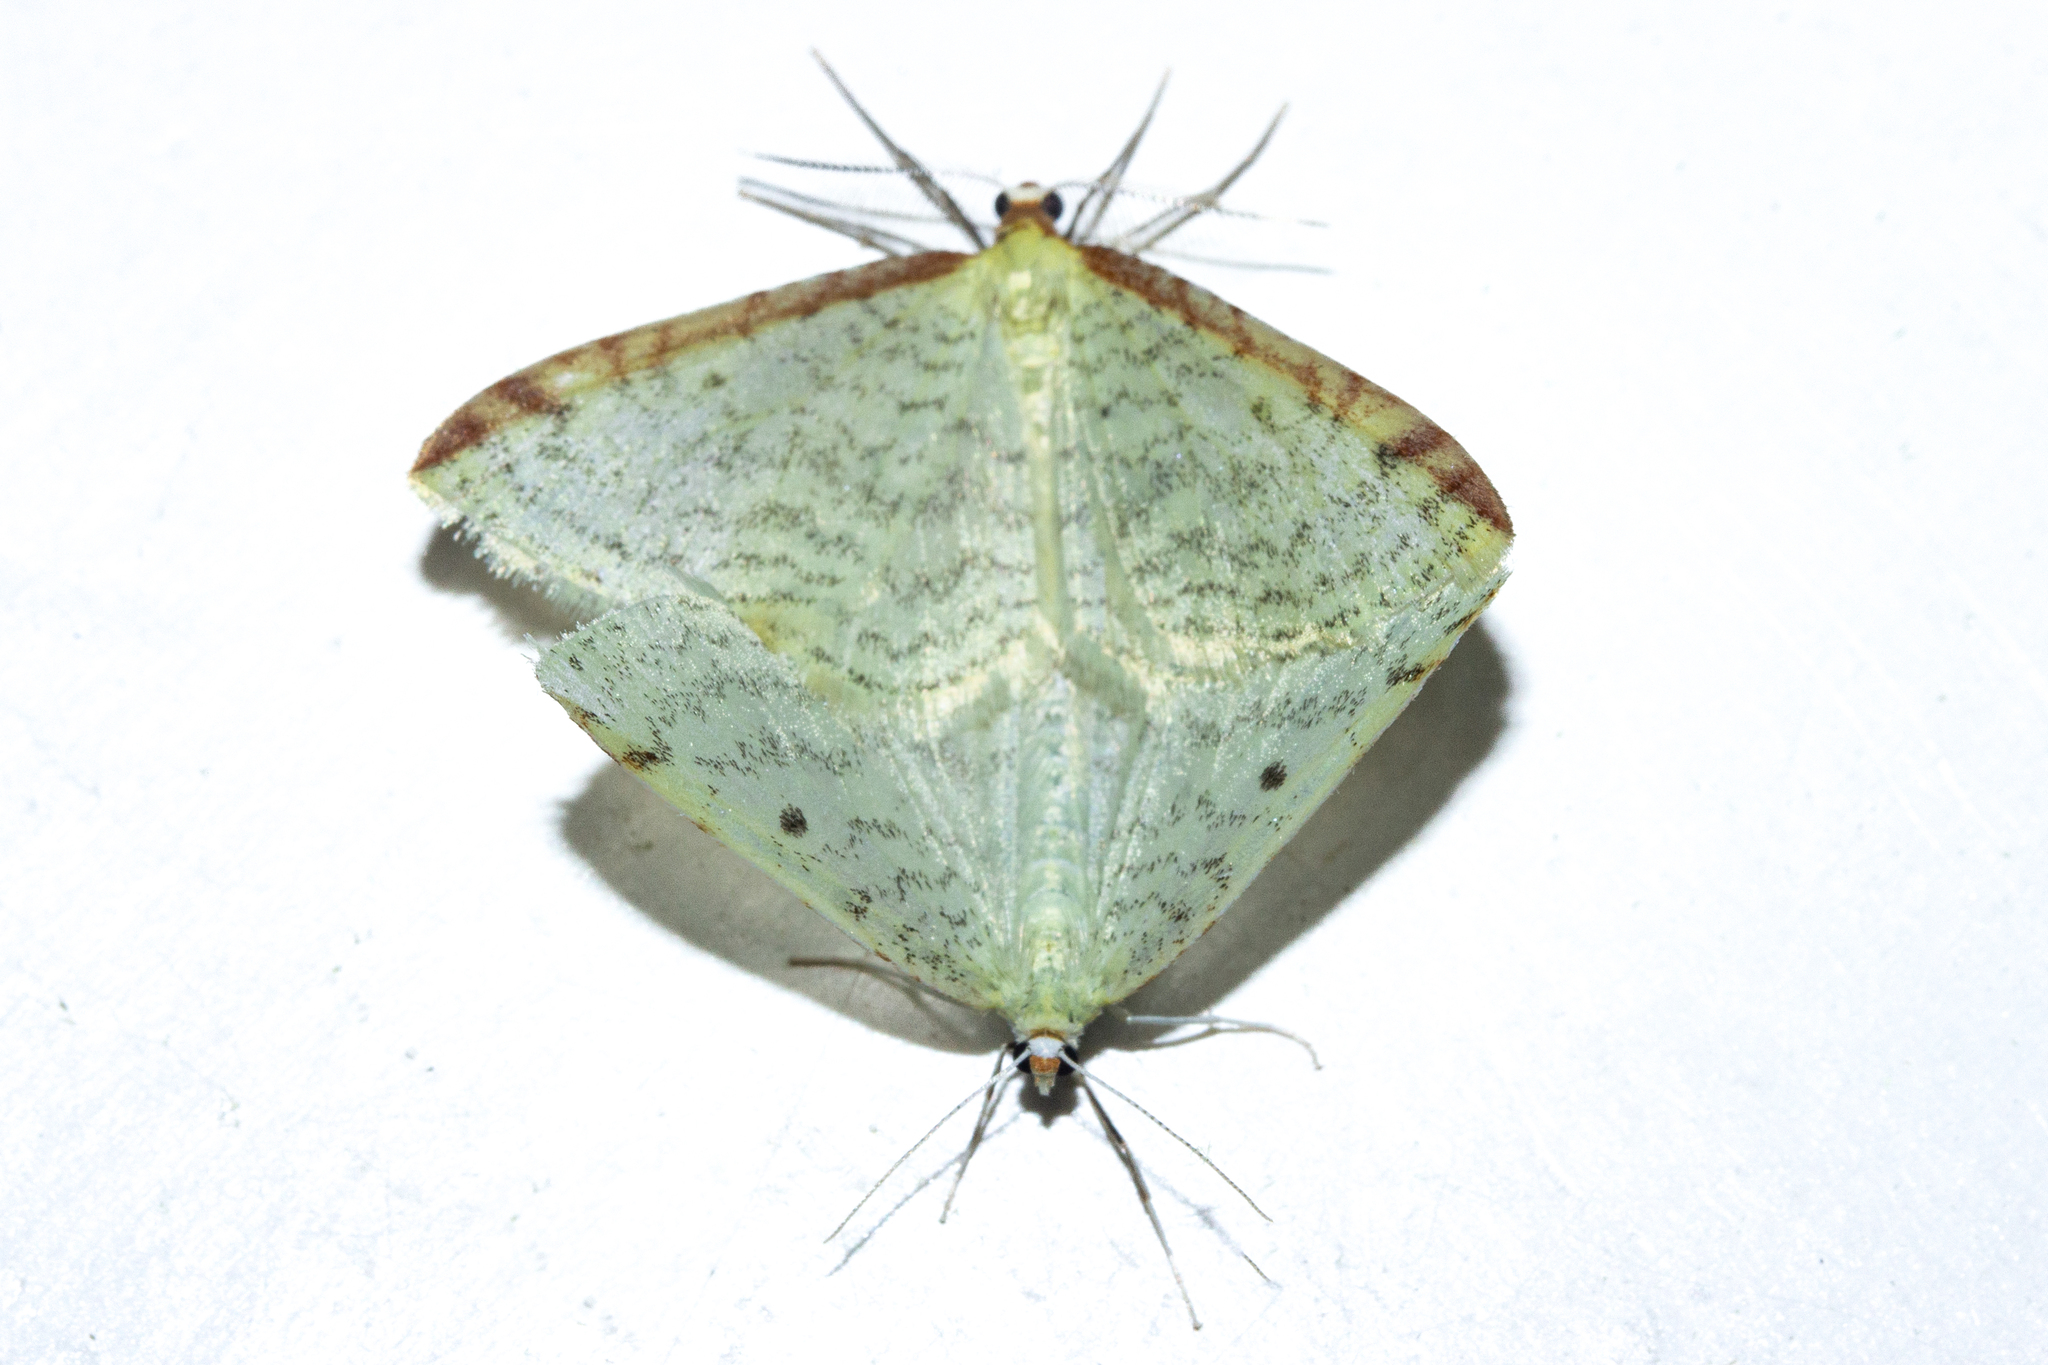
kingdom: Animalia
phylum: Arthropoda
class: Insecta
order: Lepidoptera
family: Geometridae
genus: Epiphryne
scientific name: Epiphryne undosata
